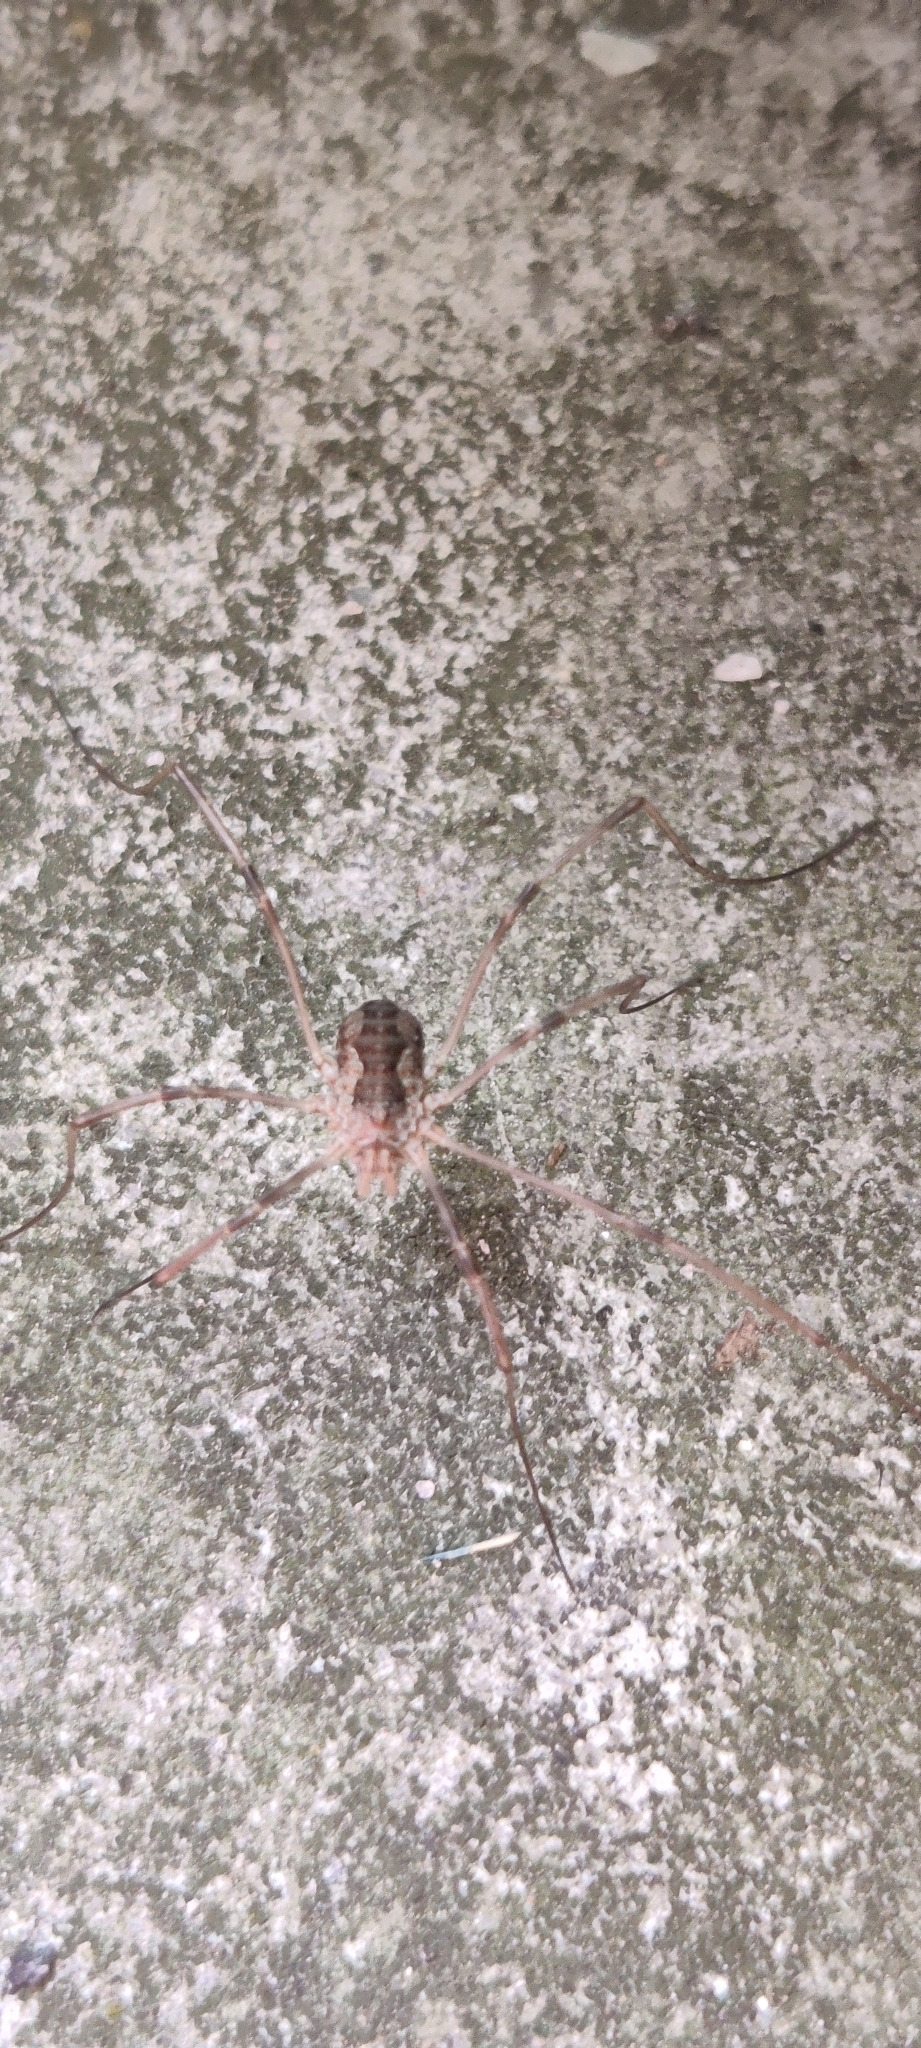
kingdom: Animalia
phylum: Arthropoda
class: Arachnida
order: Opiliones
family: Phalangiidae
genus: Phalangium
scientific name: Phalangium opilio
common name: Daddy longleg
